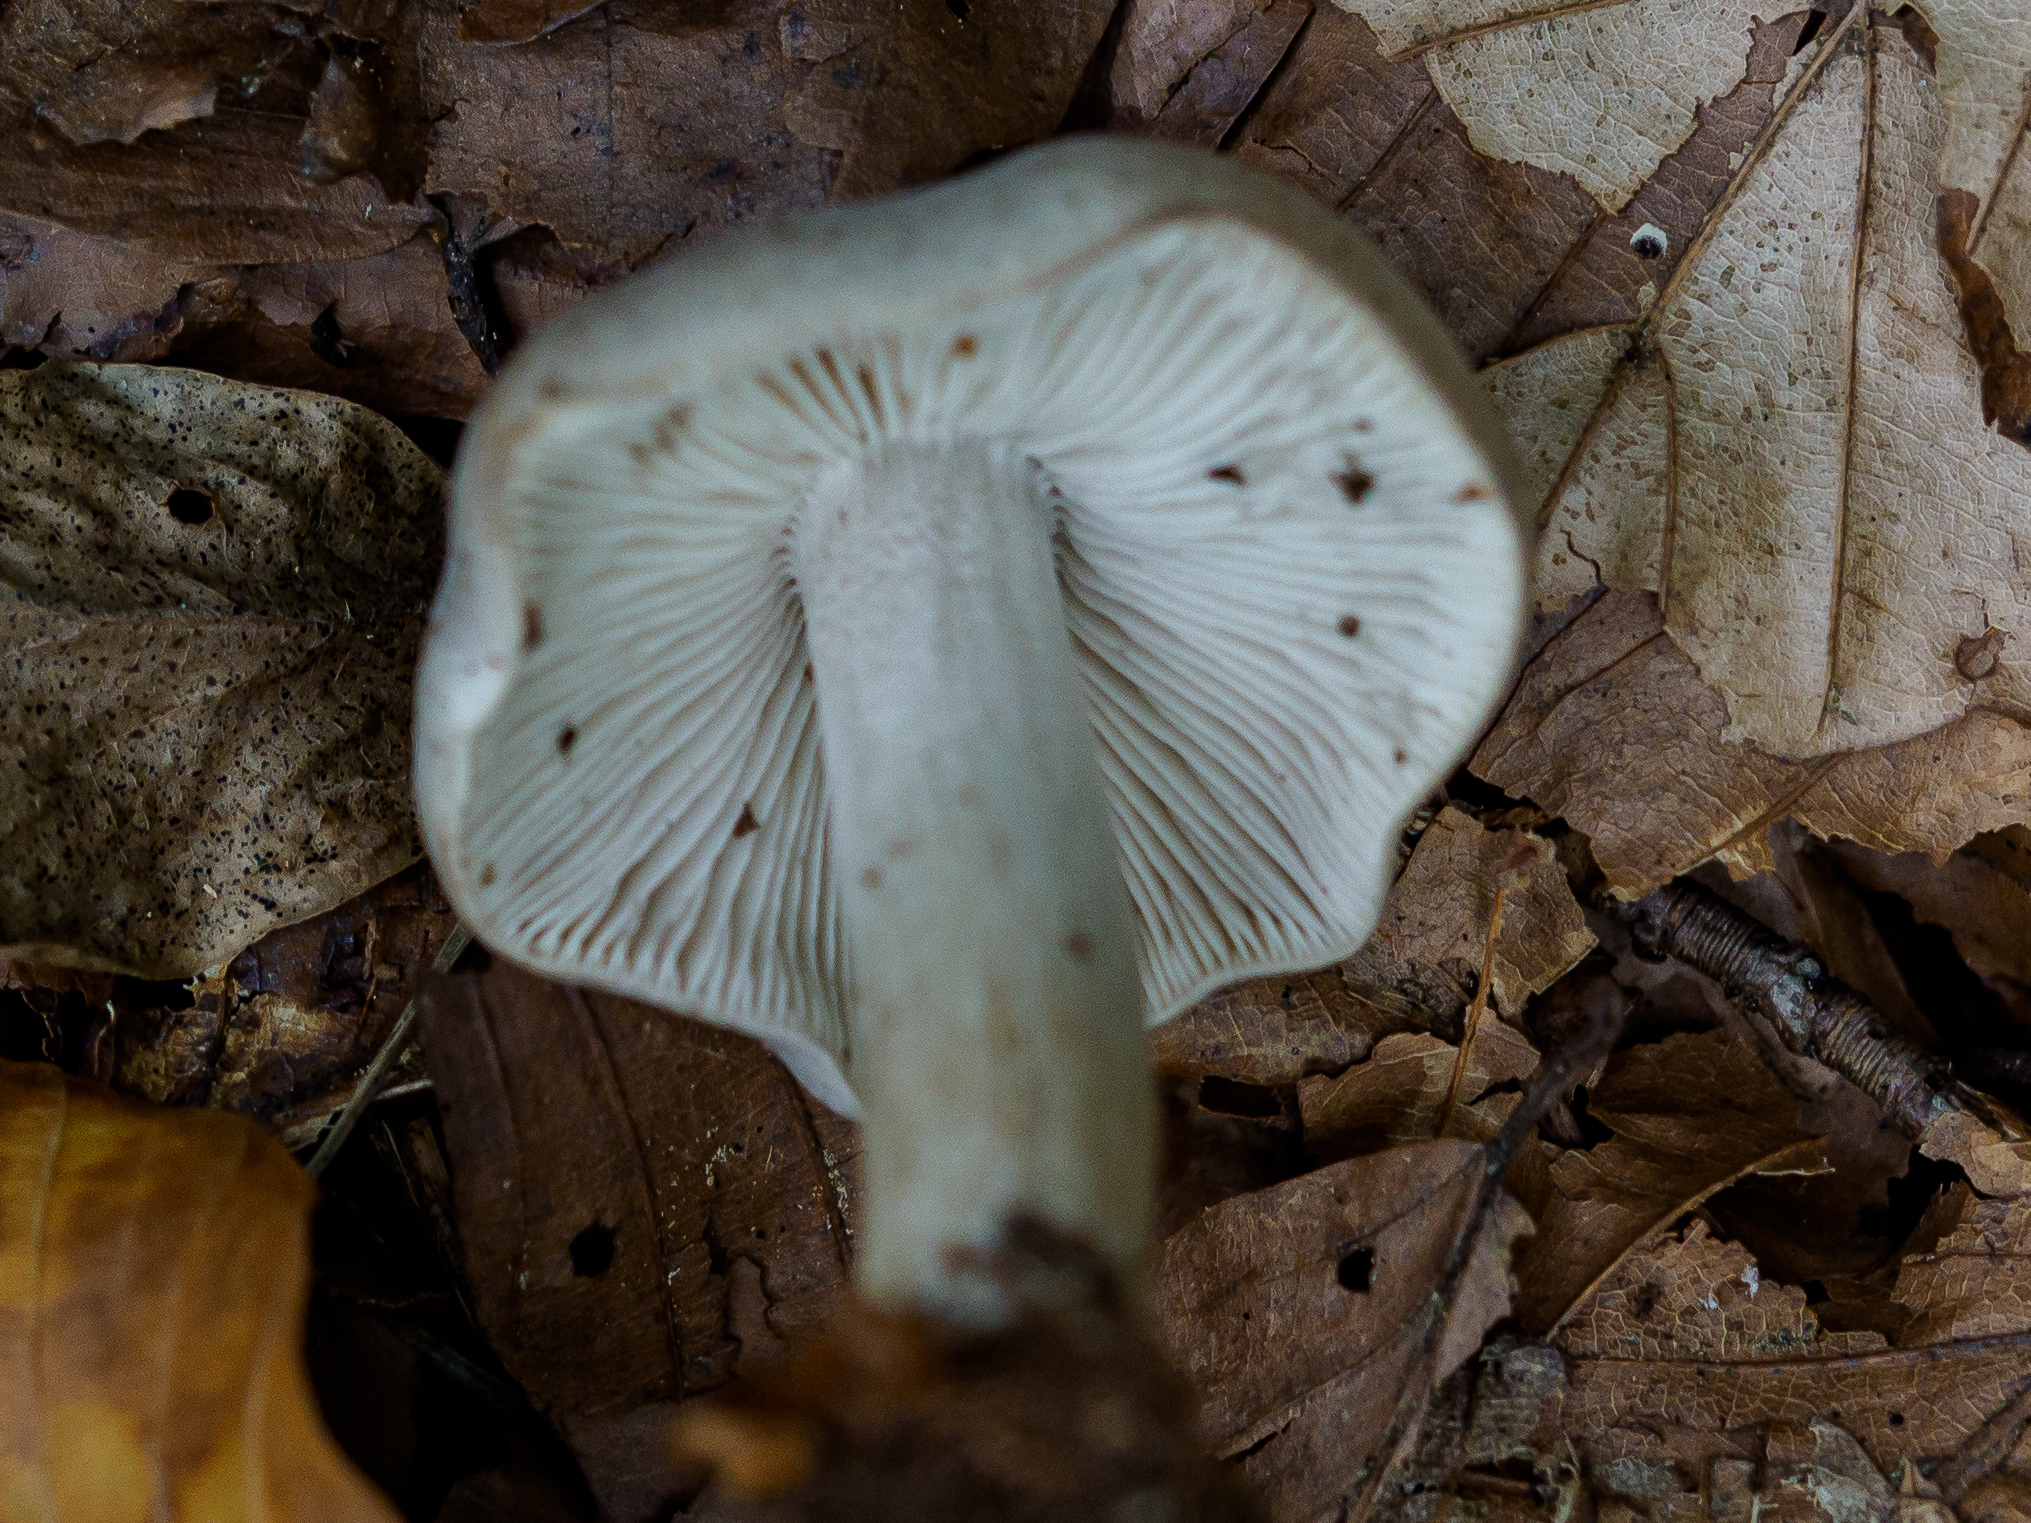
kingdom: Fungi
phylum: Basidiomycota
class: Agaricomycetes
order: Agaricales
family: Tricholomataceae
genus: Tricholoma
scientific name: Tricholoma sciodes
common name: Beech knight
